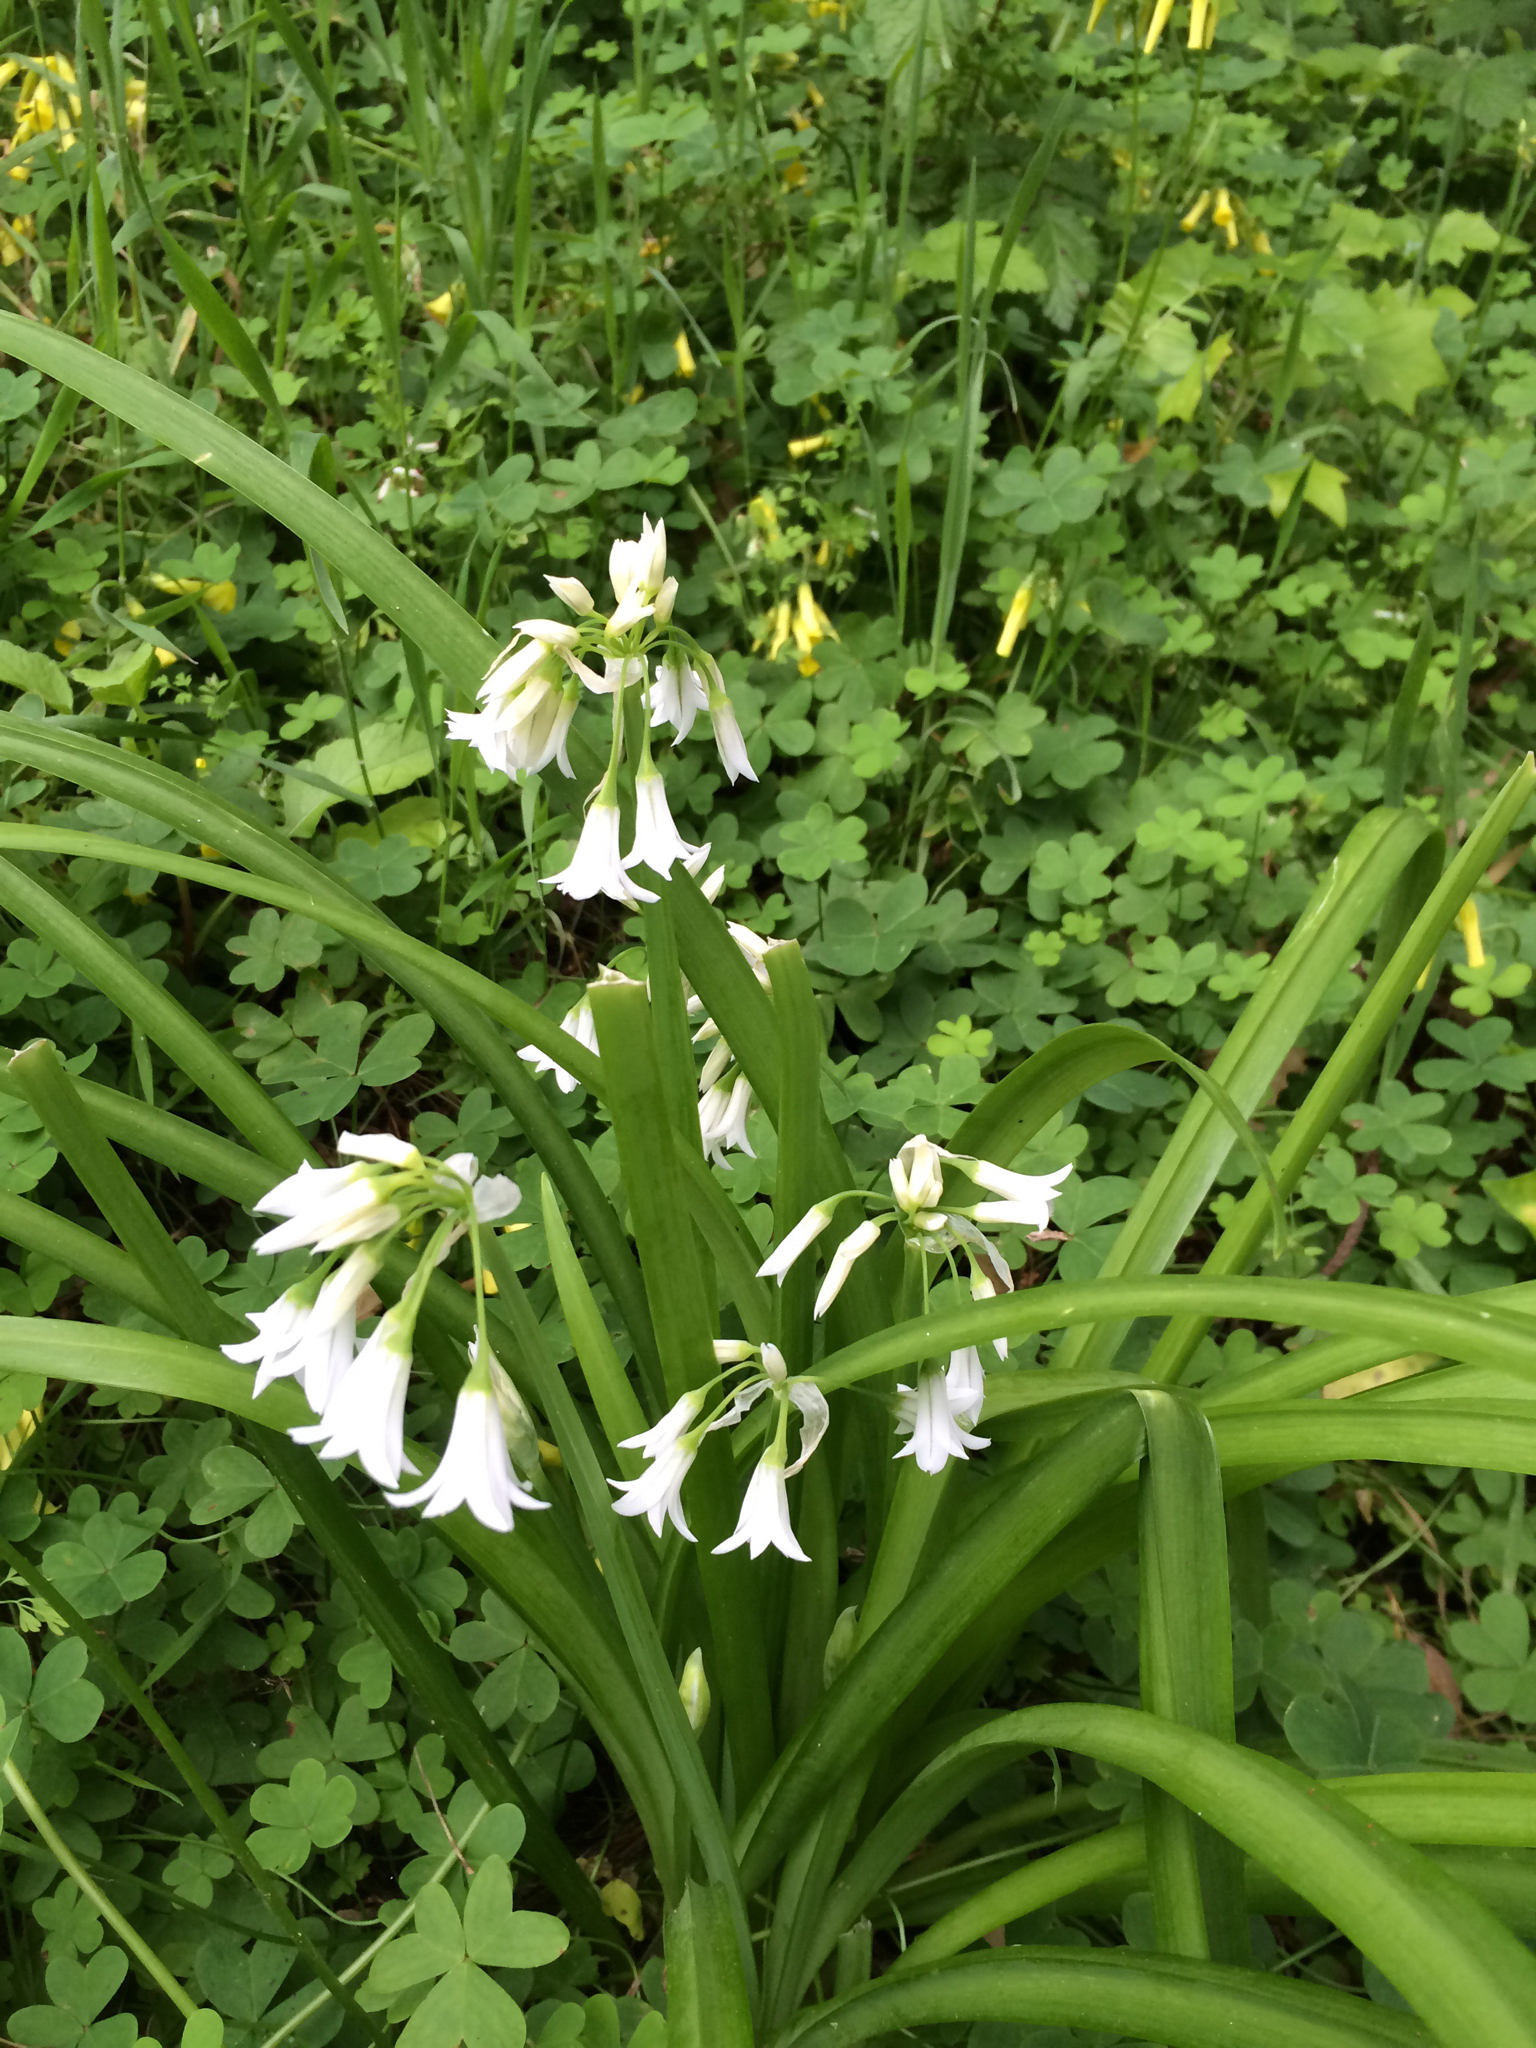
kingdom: Plantae
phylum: Tracheophyta
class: Liliopsida
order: Asparagales
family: Amaryllidaceae
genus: Allium
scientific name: Allium triquetrum
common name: Three-cornered garlic
